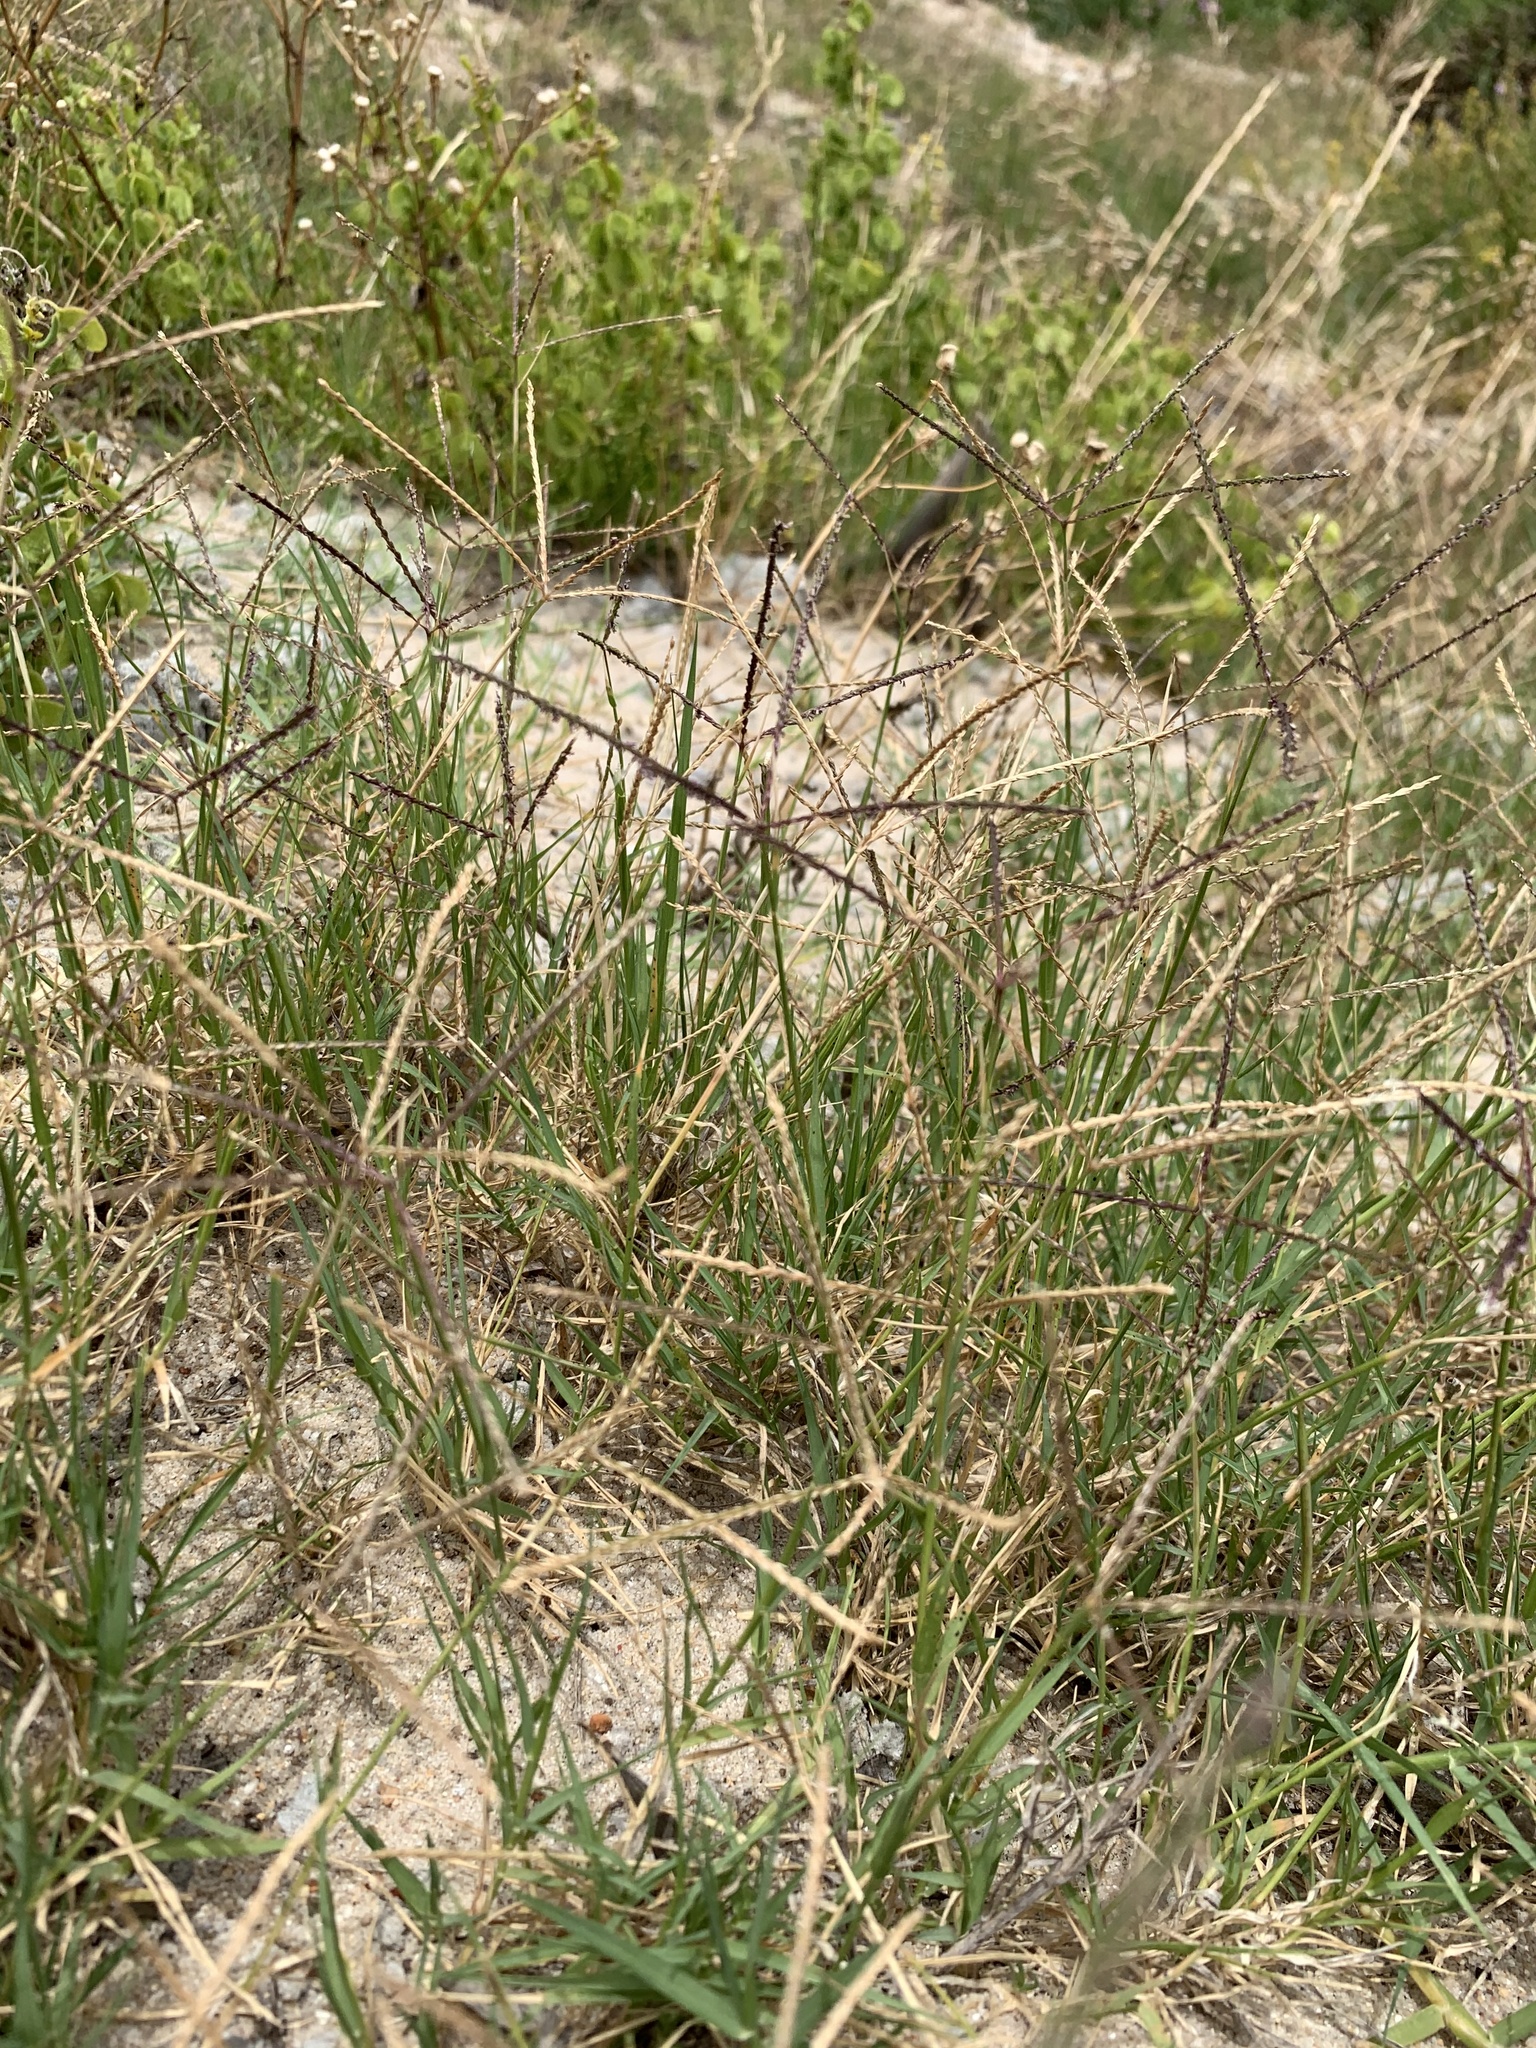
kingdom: Plantae
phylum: Tracheophyta
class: Liliopsida
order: Poales
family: Poaceae
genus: Cynodon
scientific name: Cynodon dactylon
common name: Bermuda grass
